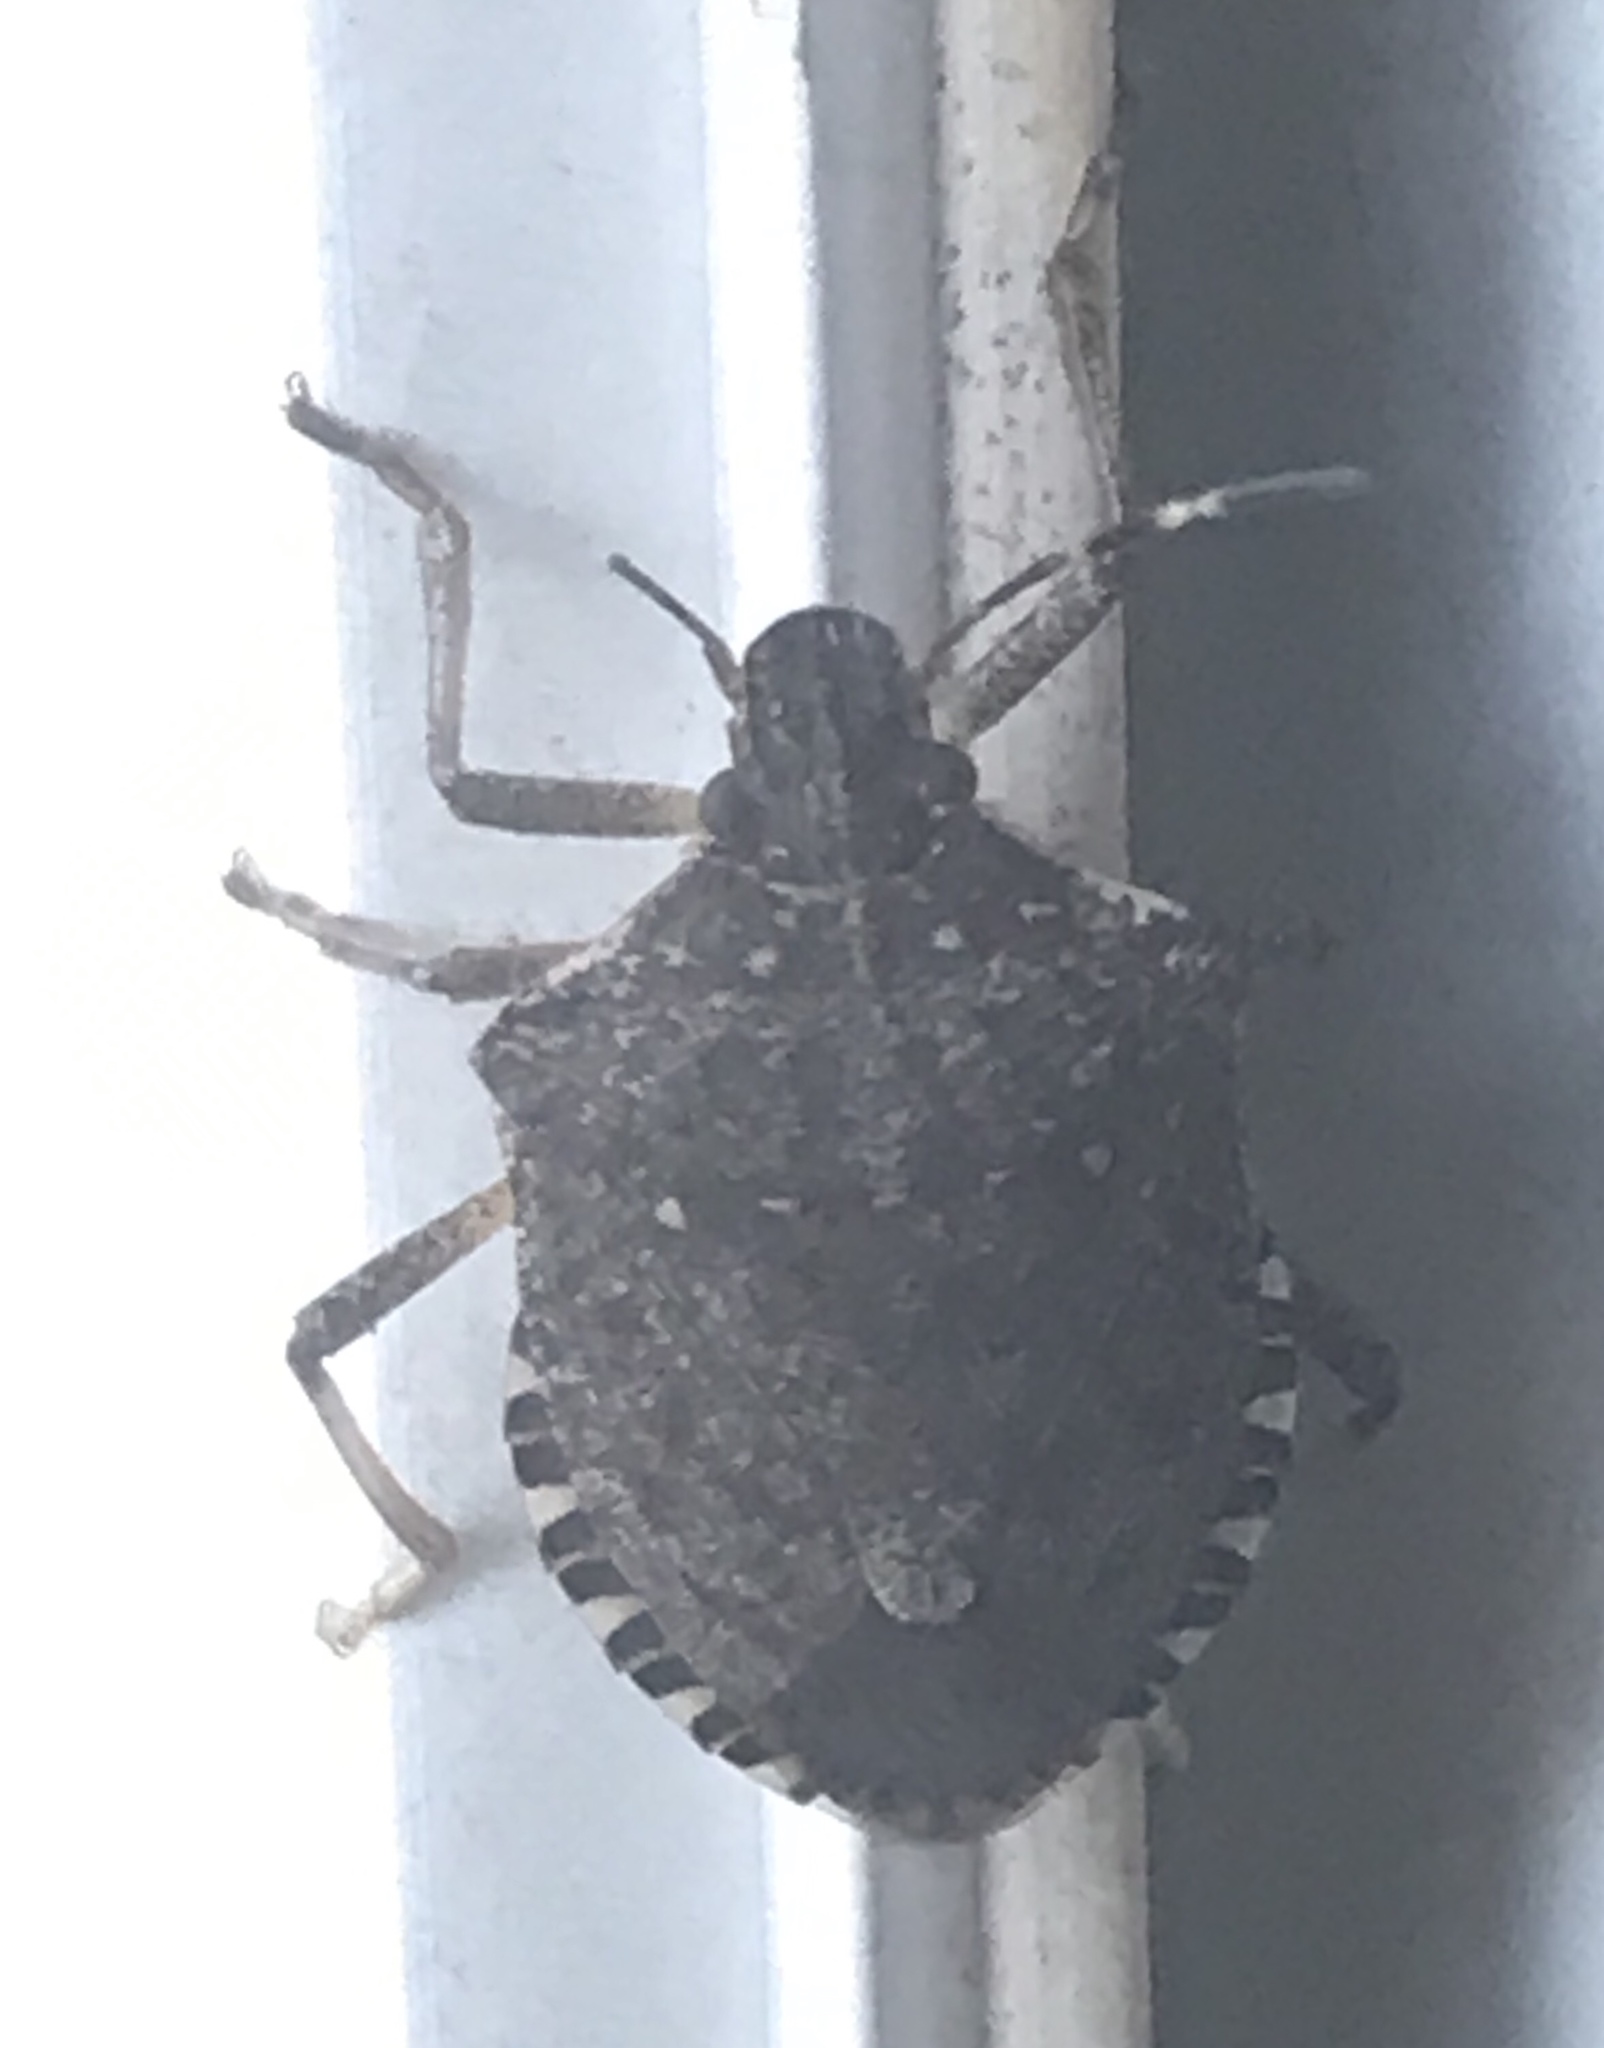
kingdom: Animalia
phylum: Arthropoda
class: Insecta
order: Hemiptera
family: Pentatomidae
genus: Halyomorpha
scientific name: Halyomorpha halys
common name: Brown marmorated stink bug
